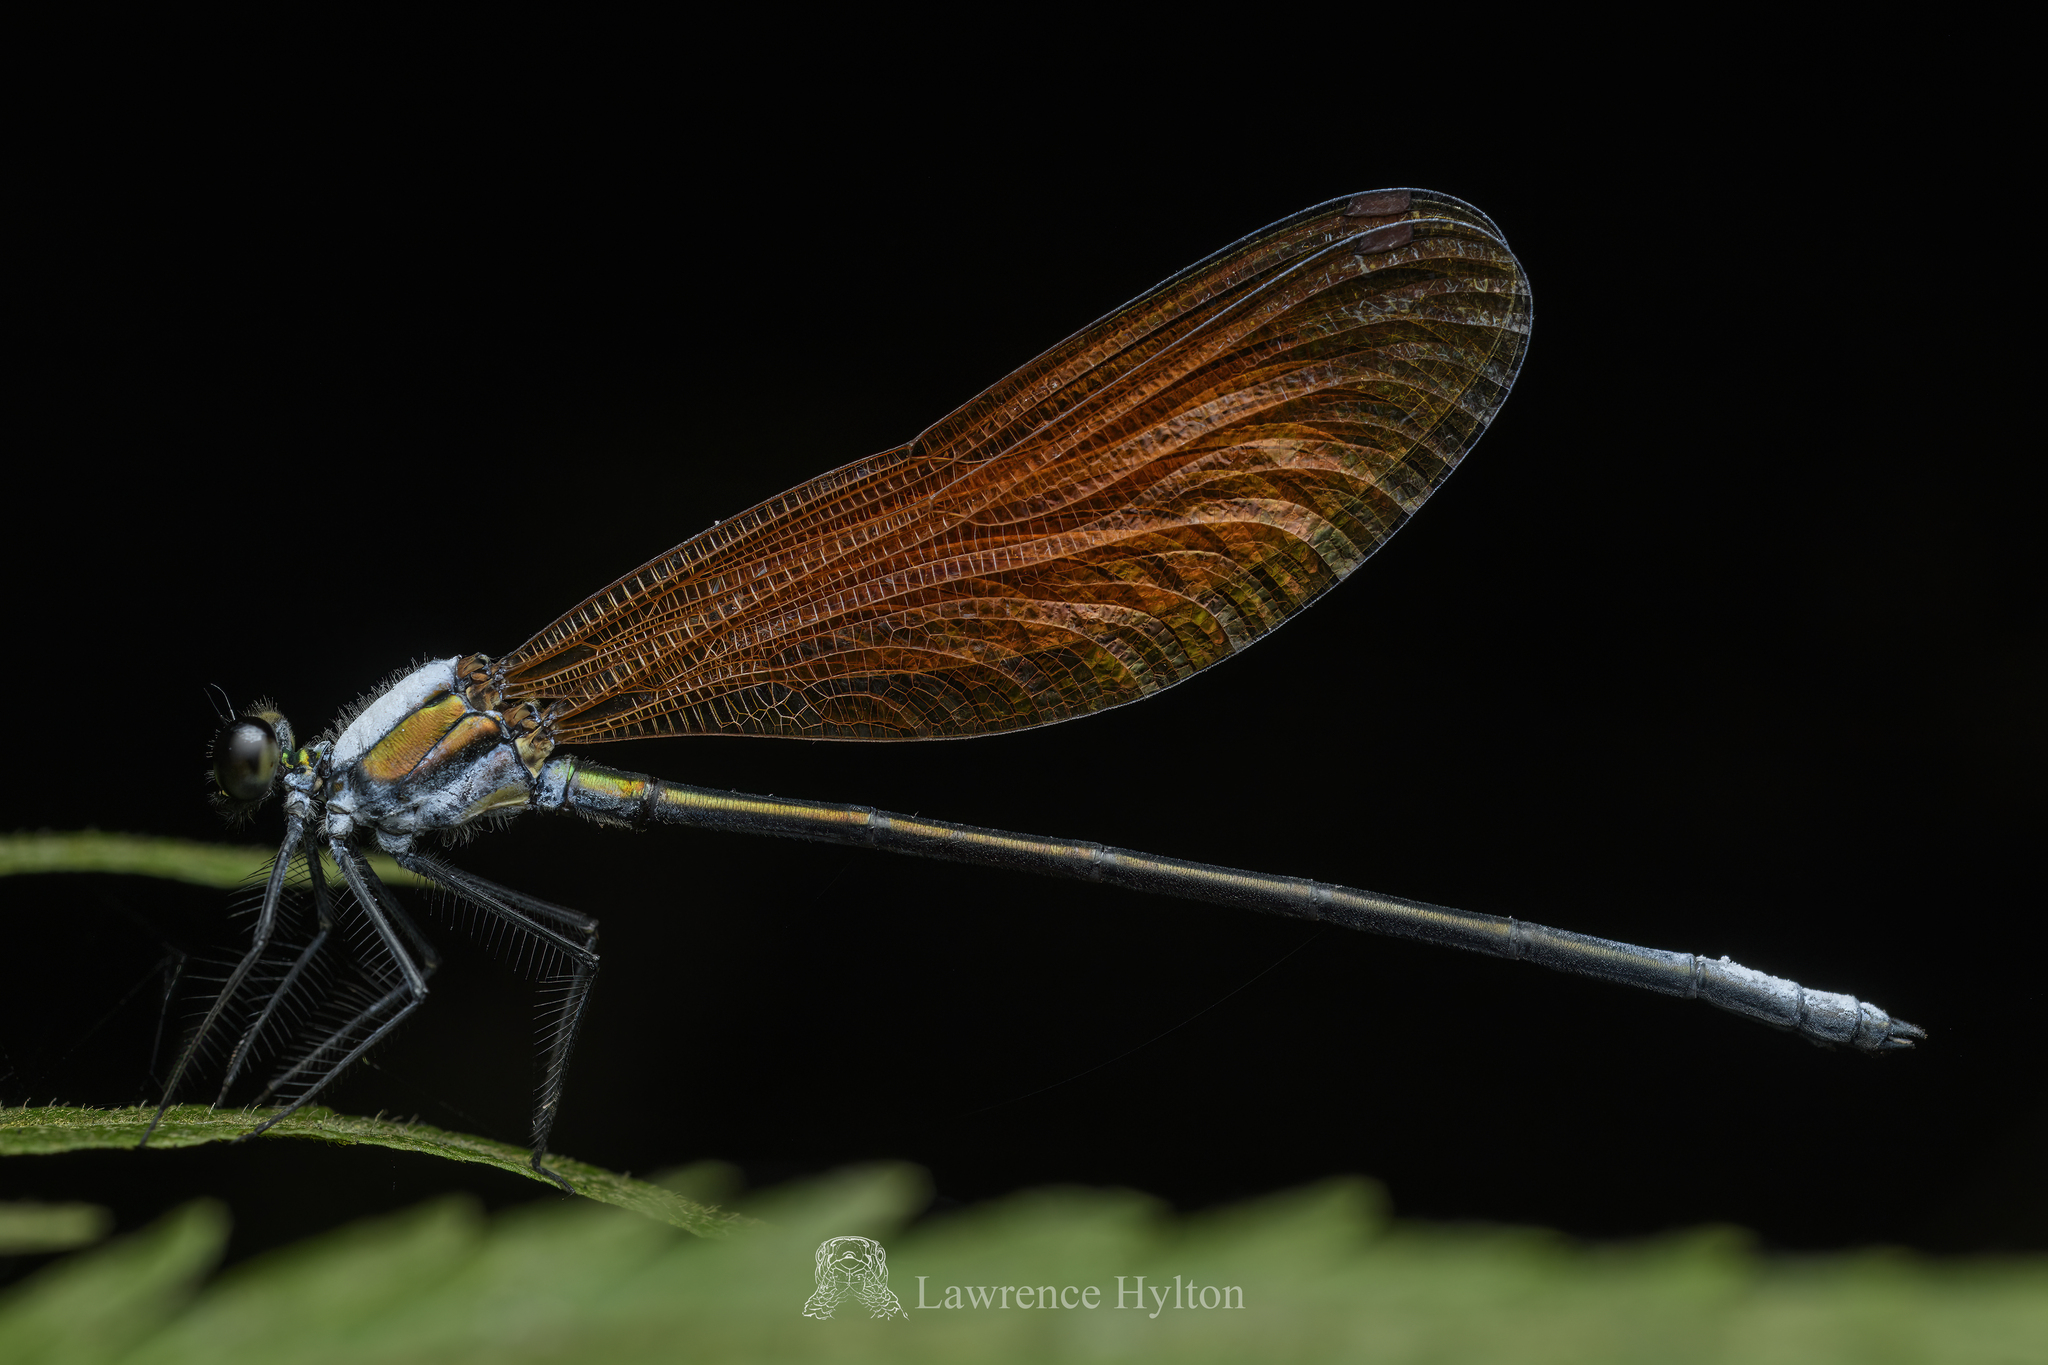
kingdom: Animalia
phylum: Arthropoda
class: Insecta
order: Odonata
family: Calopterygidae
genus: Mnais
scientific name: Mnais mneme
